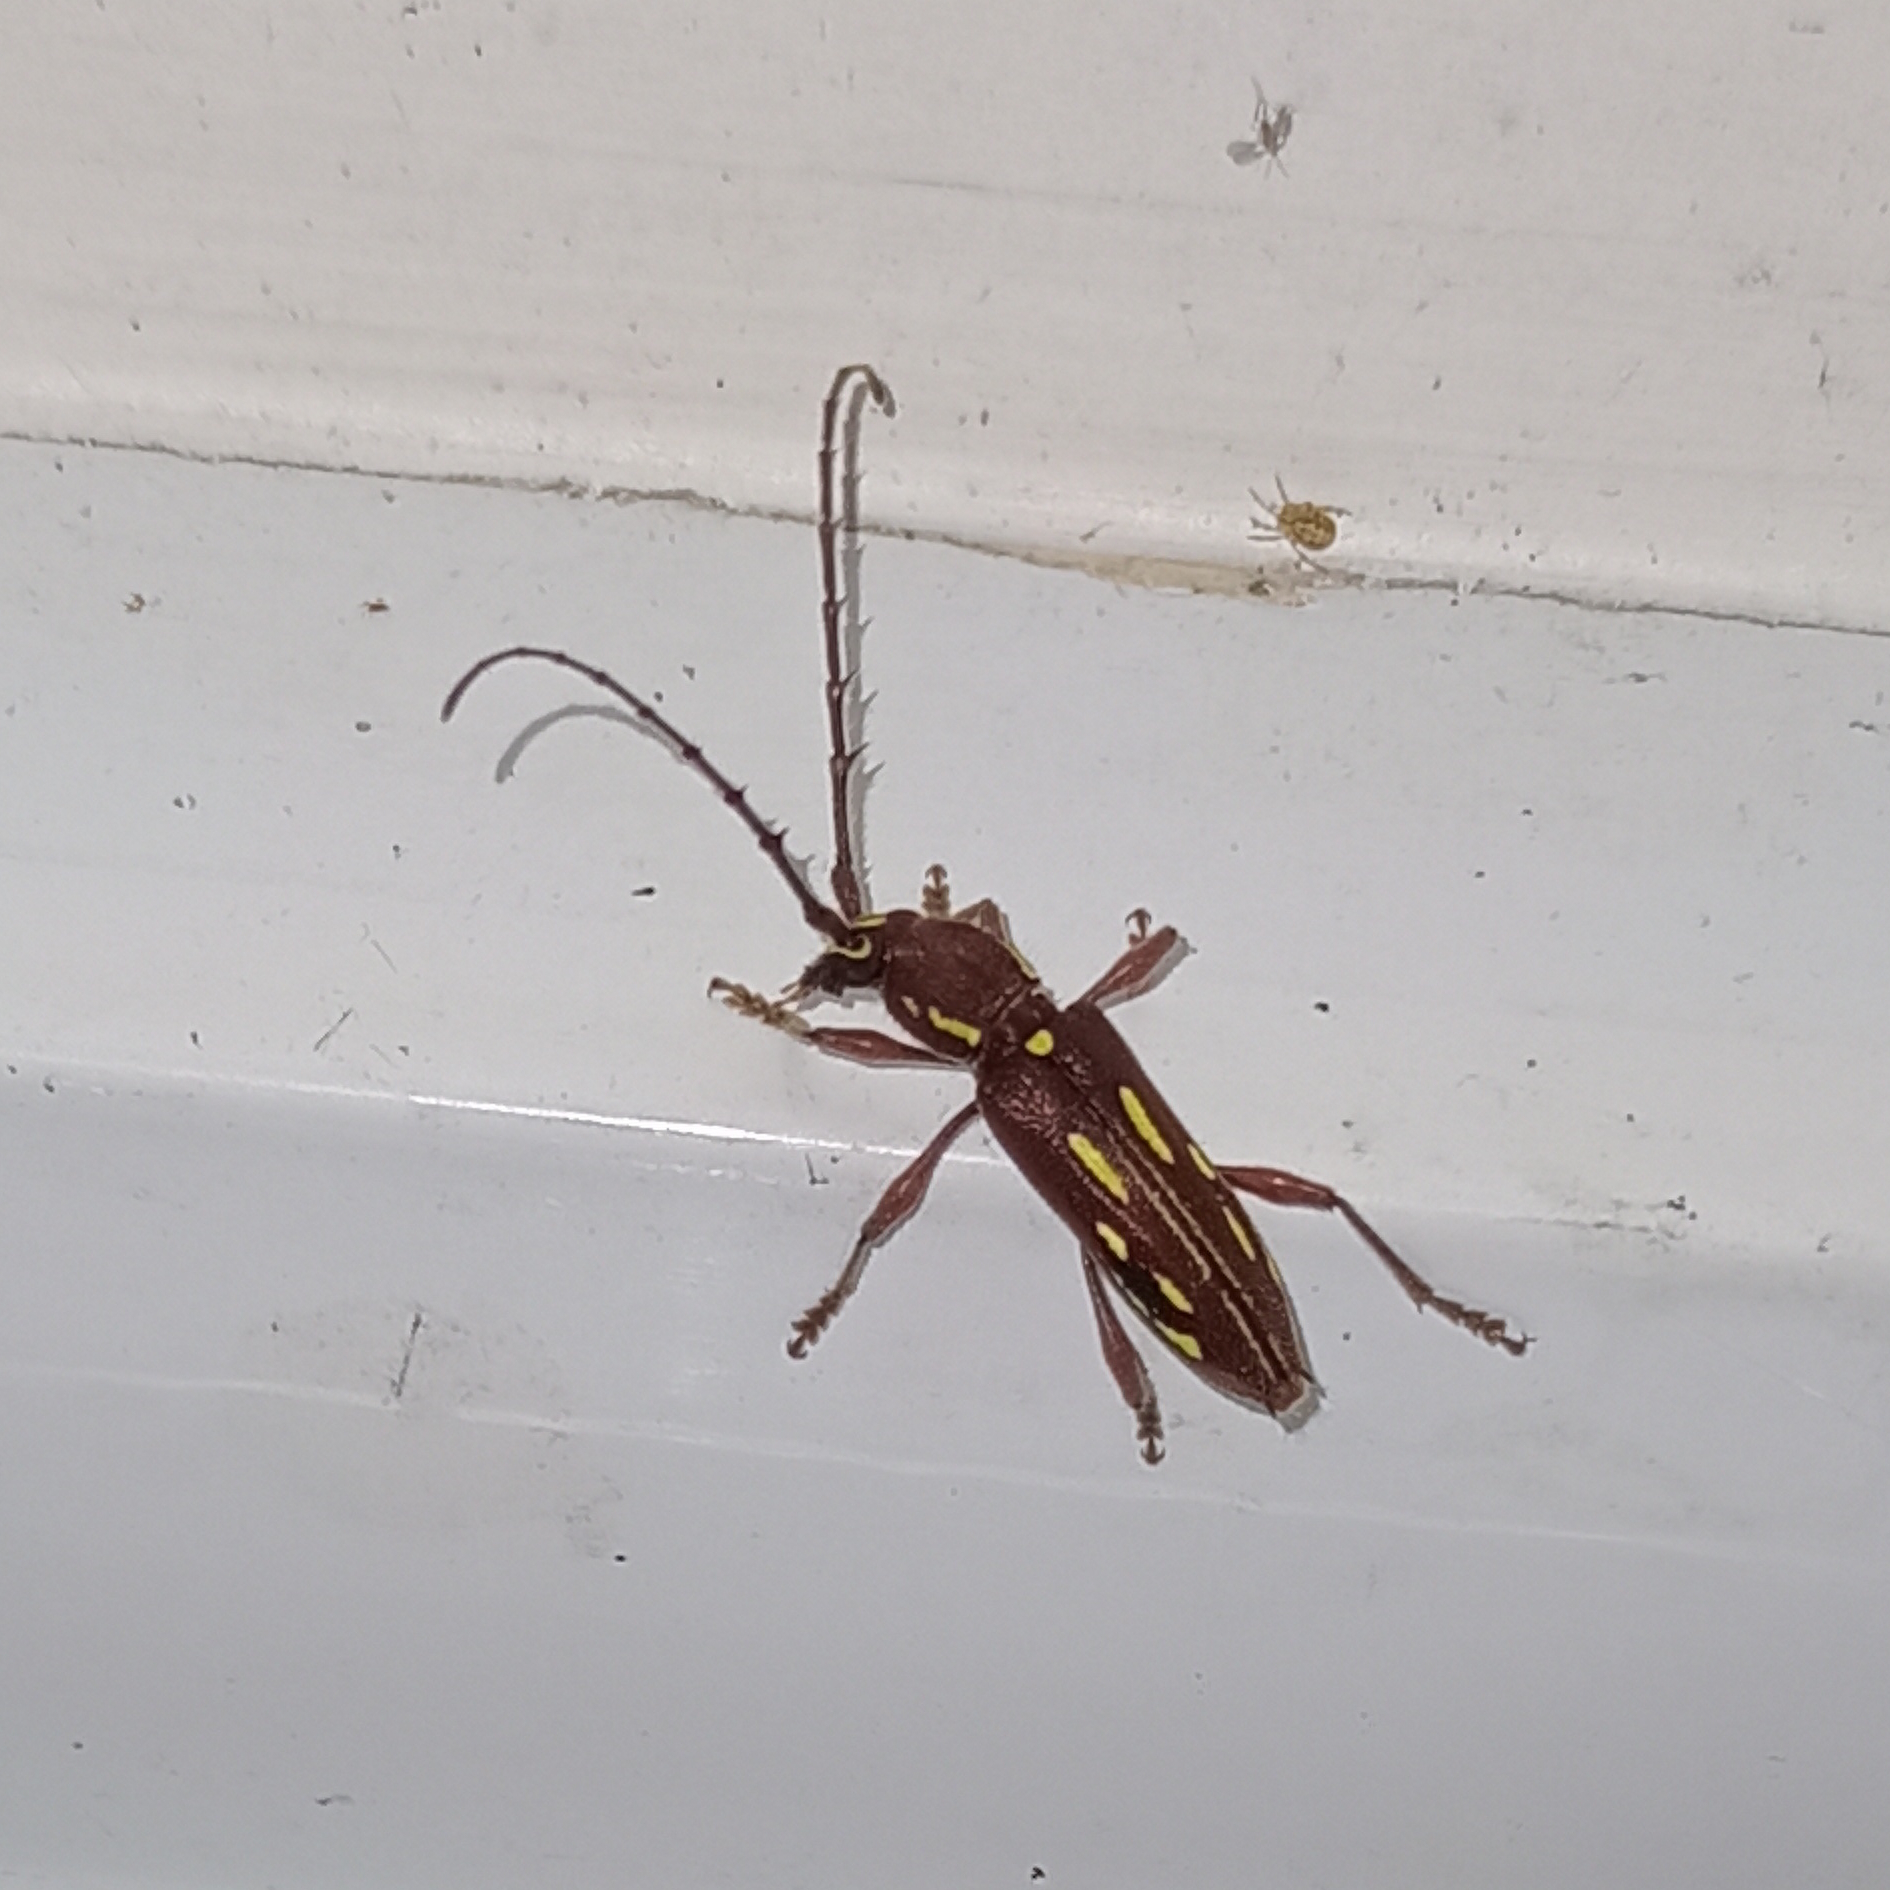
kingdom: Animalia
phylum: Arthropoda
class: Insecta
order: Coleoptera
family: Cerambycidae
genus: Ambonus
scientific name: Ambonus distinctus
